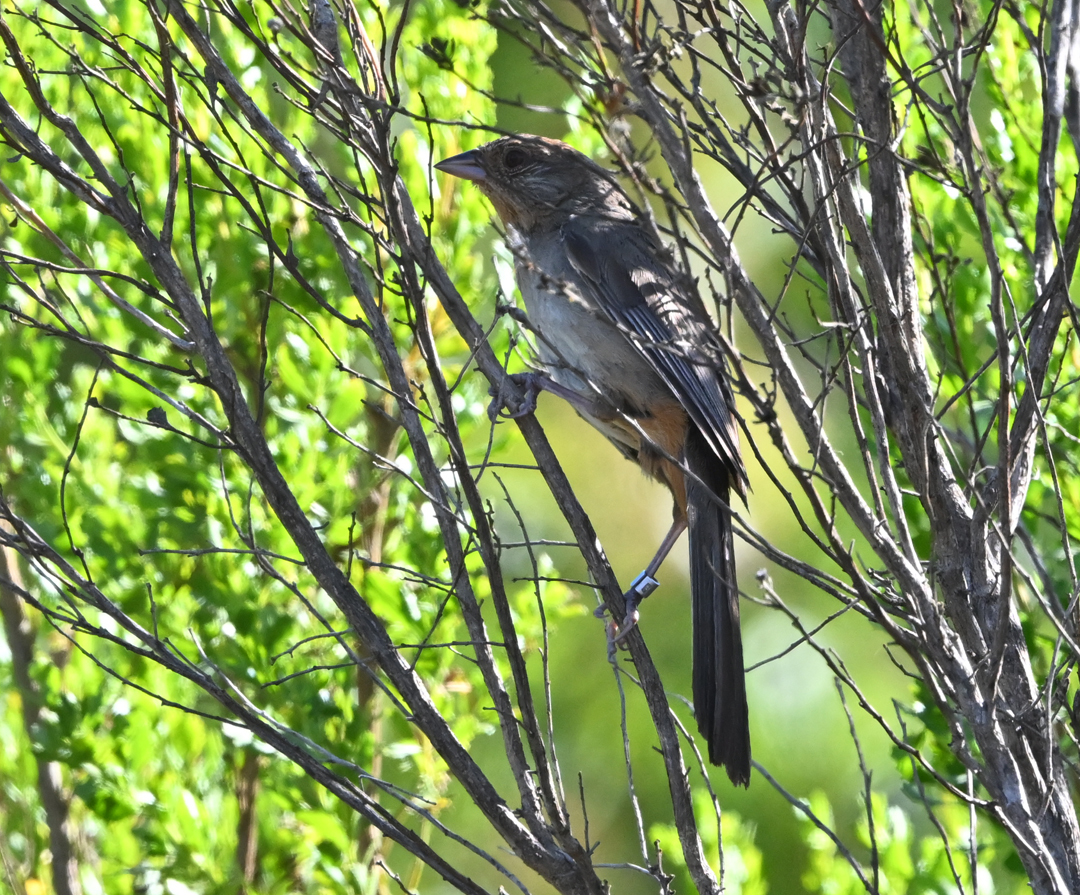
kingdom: Animalia
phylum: Chordata
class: Aves
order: Passeriformes
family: Passerellidae
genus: Melozone
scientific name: Melozone crissalis
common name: California towhee
